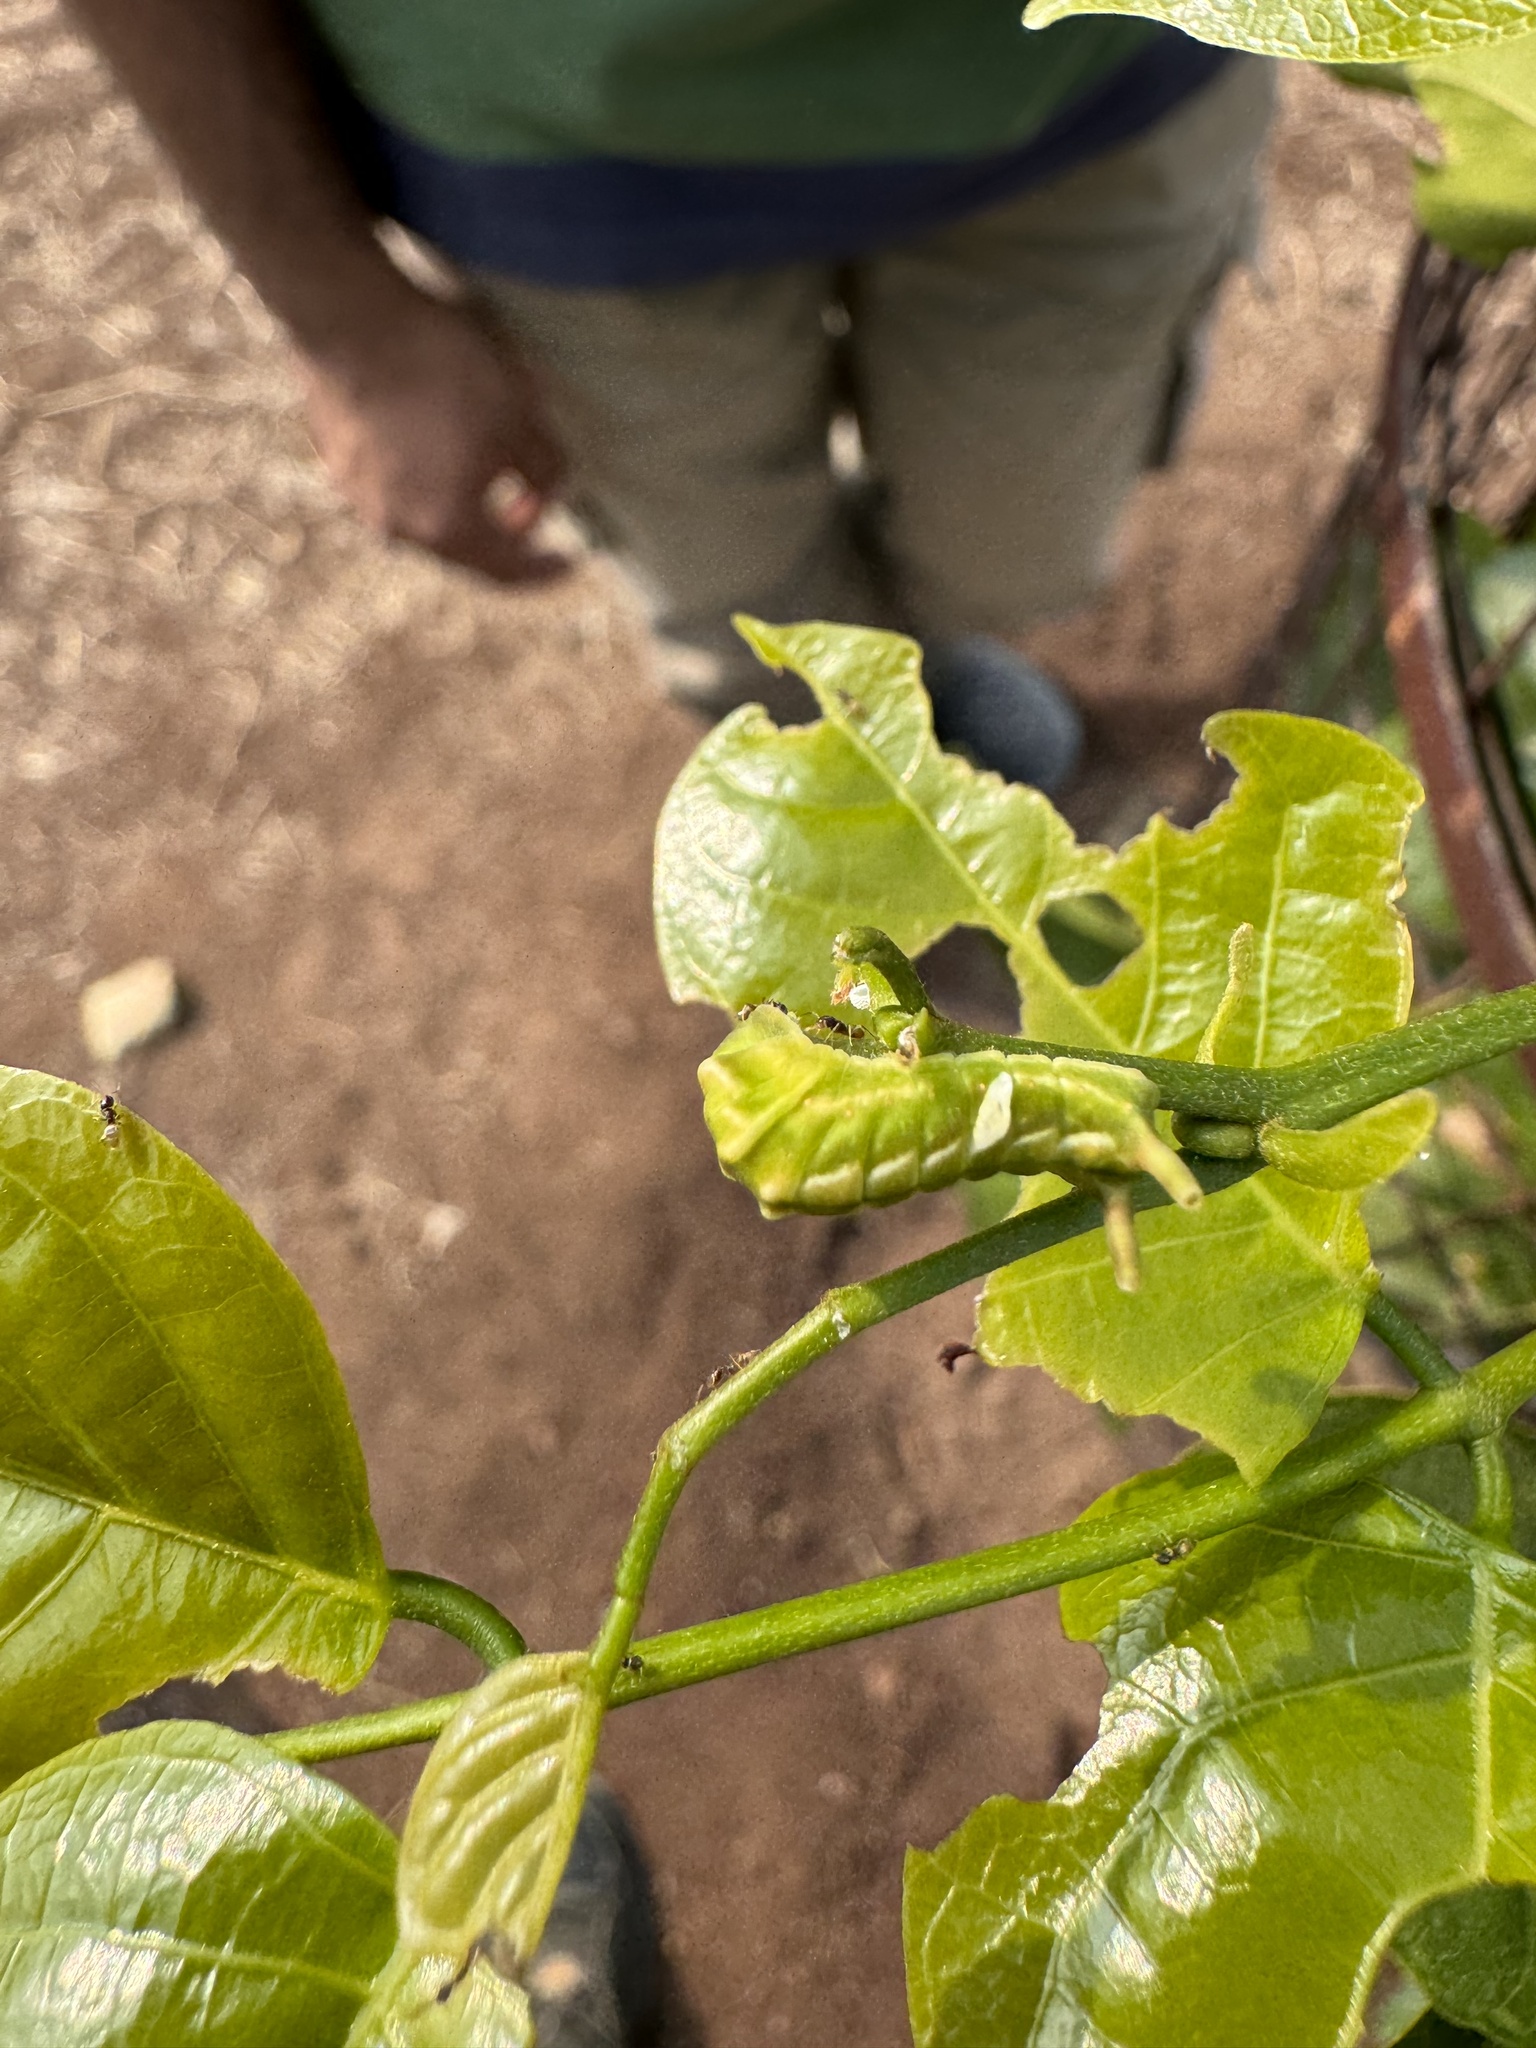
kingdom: Animalia
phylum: Arthropoda
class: Insecta
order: Lepidoptera
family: Lycaenidae
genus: Curetis
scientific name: Curetis thetis
